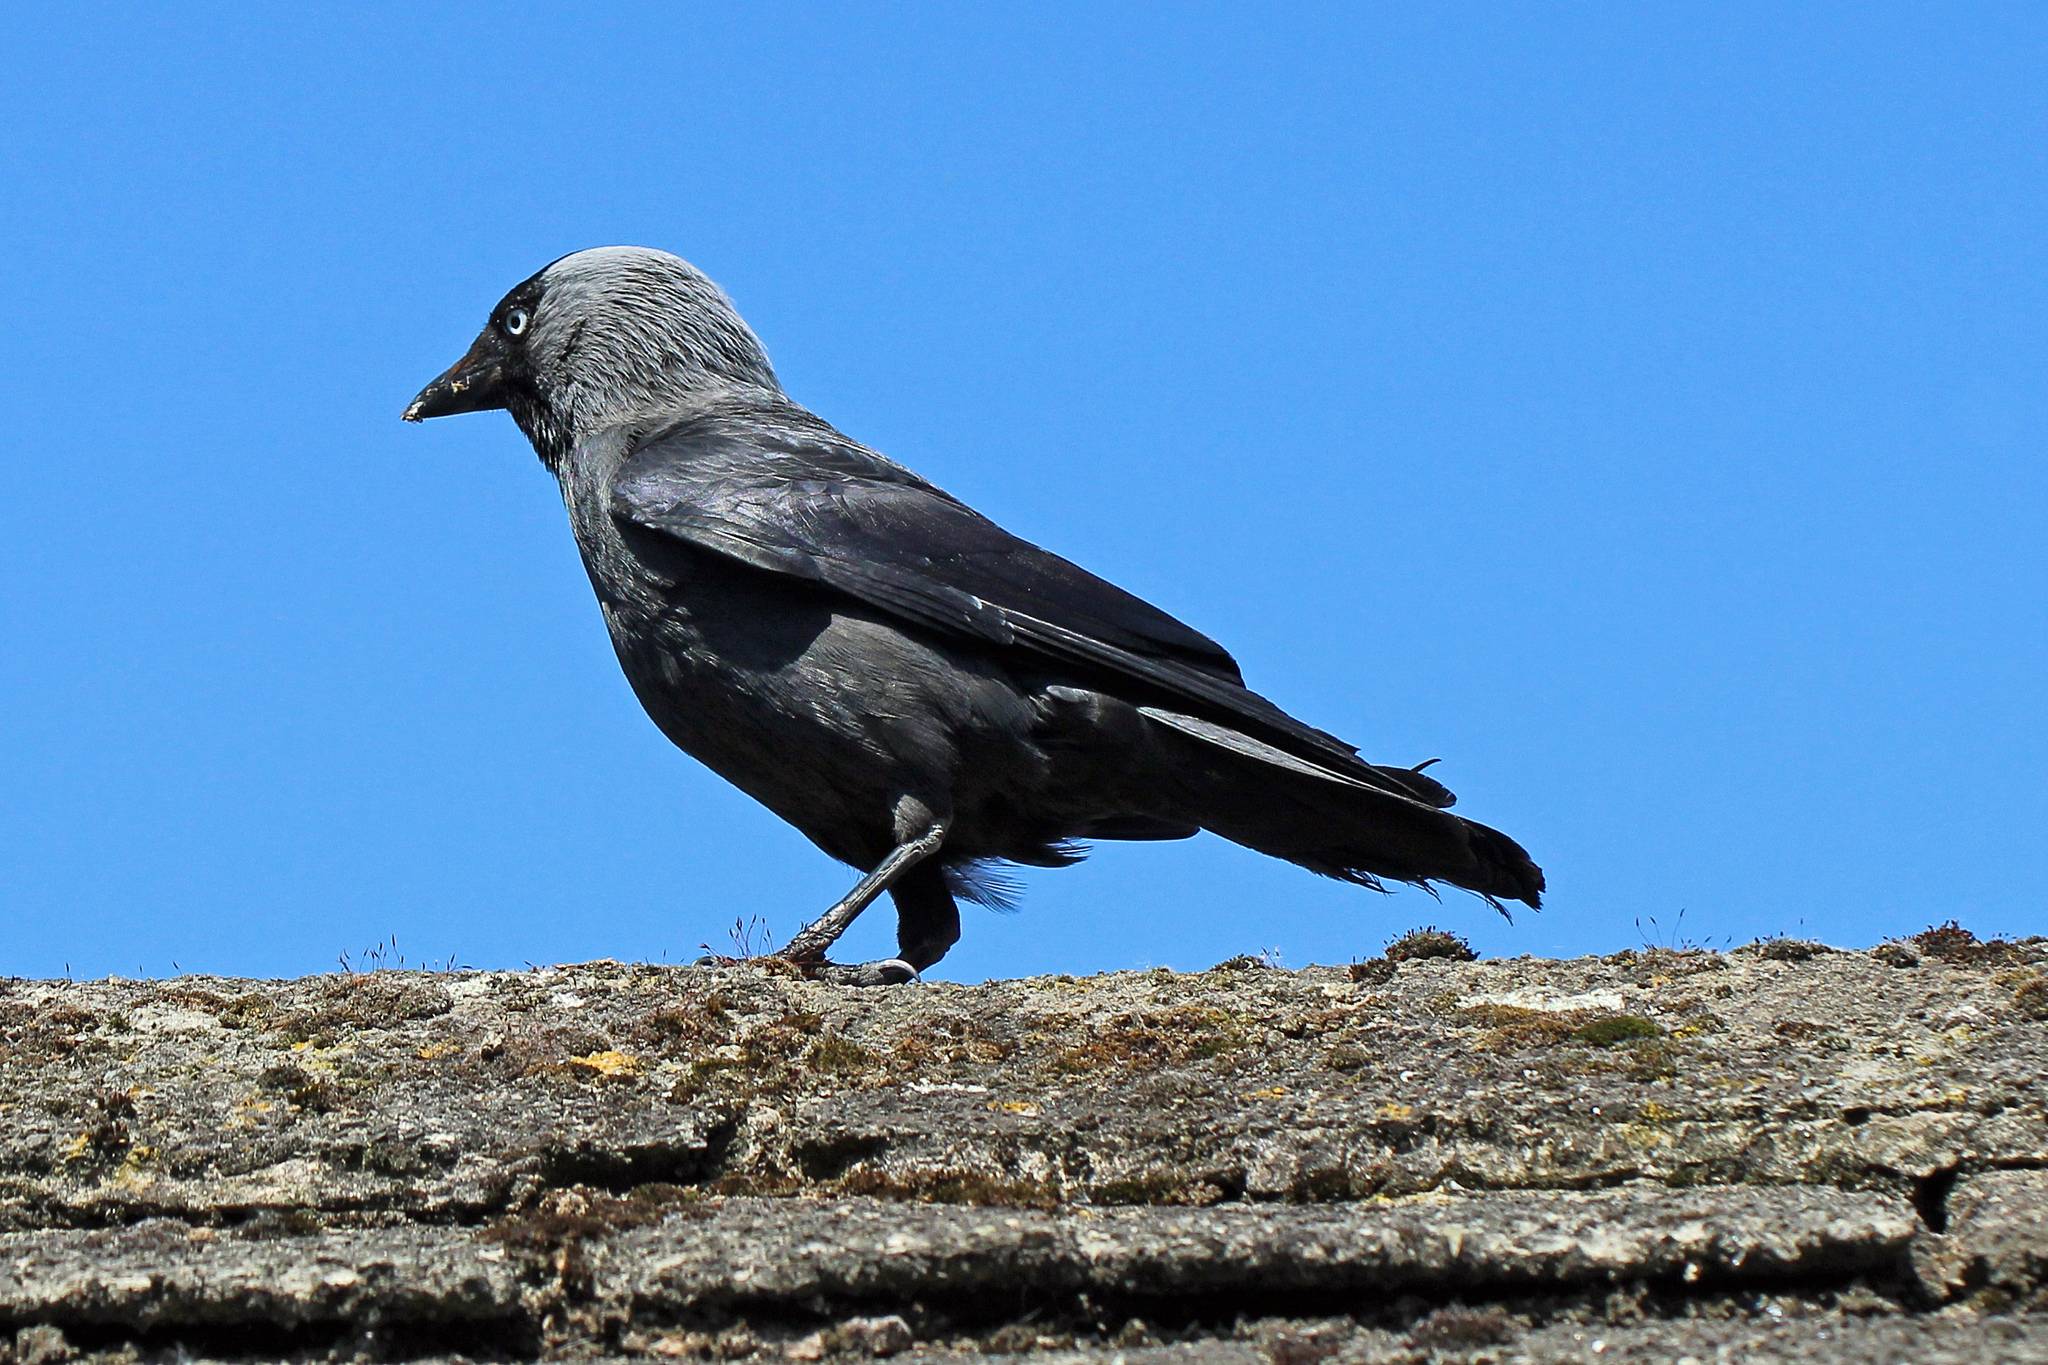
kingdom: Animalia
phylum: Chordata
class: Aves
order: Passeriformes
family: Corvidae
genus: Coloeus
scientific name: Coloeus monedula
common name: Western jackdaw
